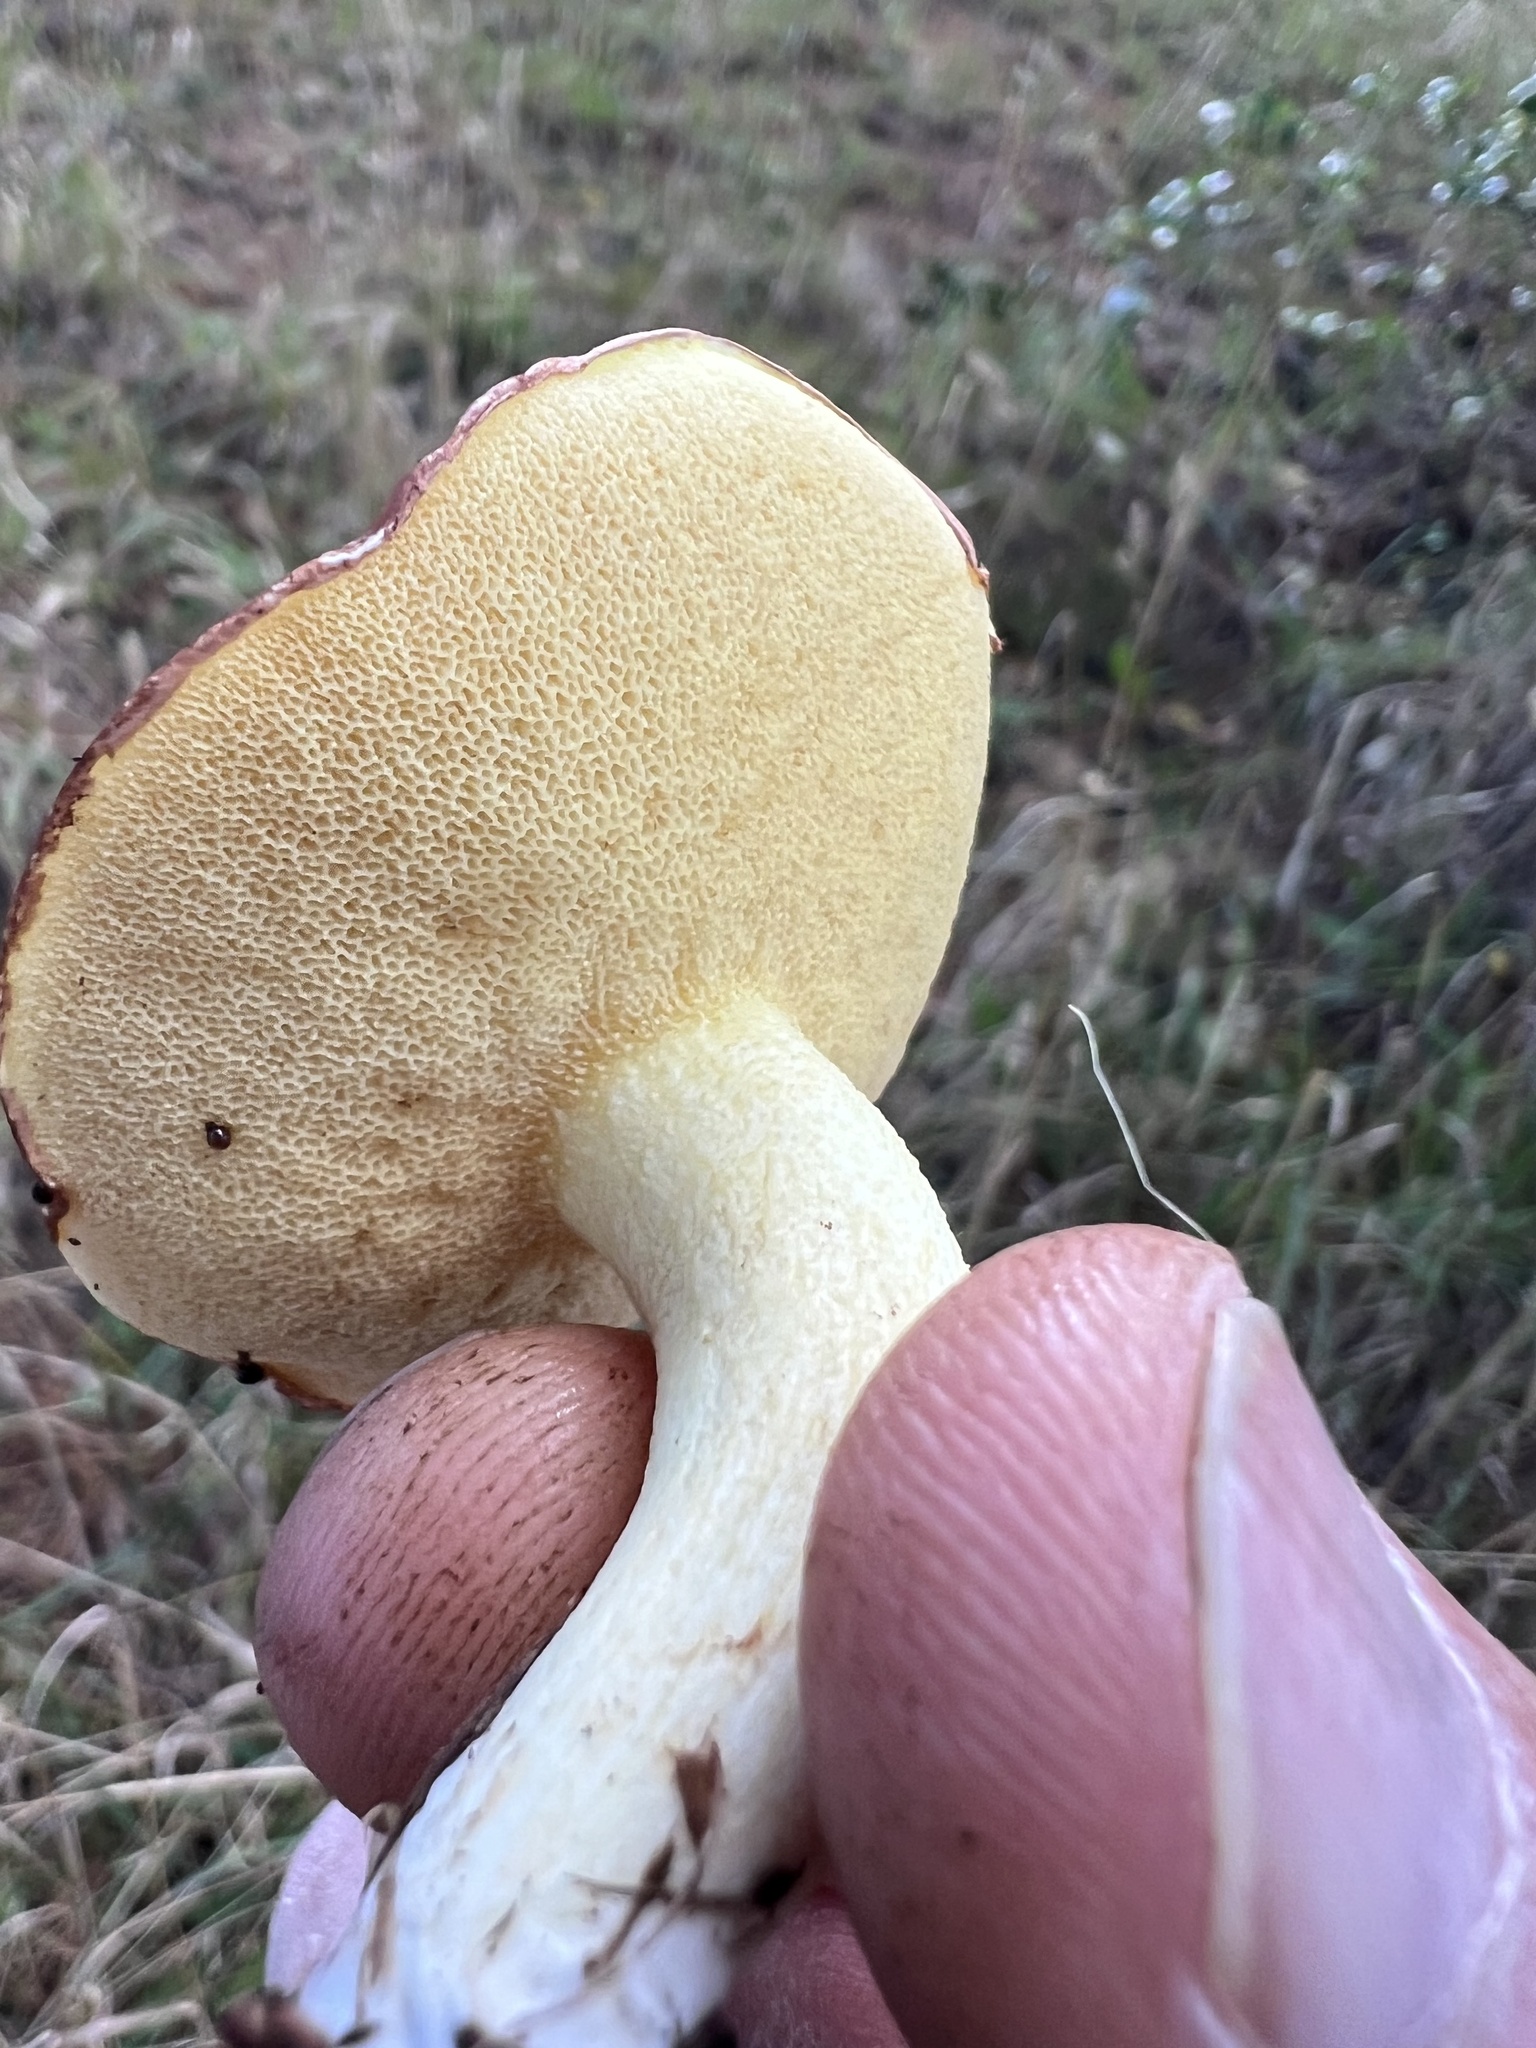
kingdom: Fungi
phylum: Basidiomycota
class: Agaricomycetes
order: Boletales
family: Suillaceae
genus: Suillus
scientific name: Suillus granulatus
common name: Weeping bolete
